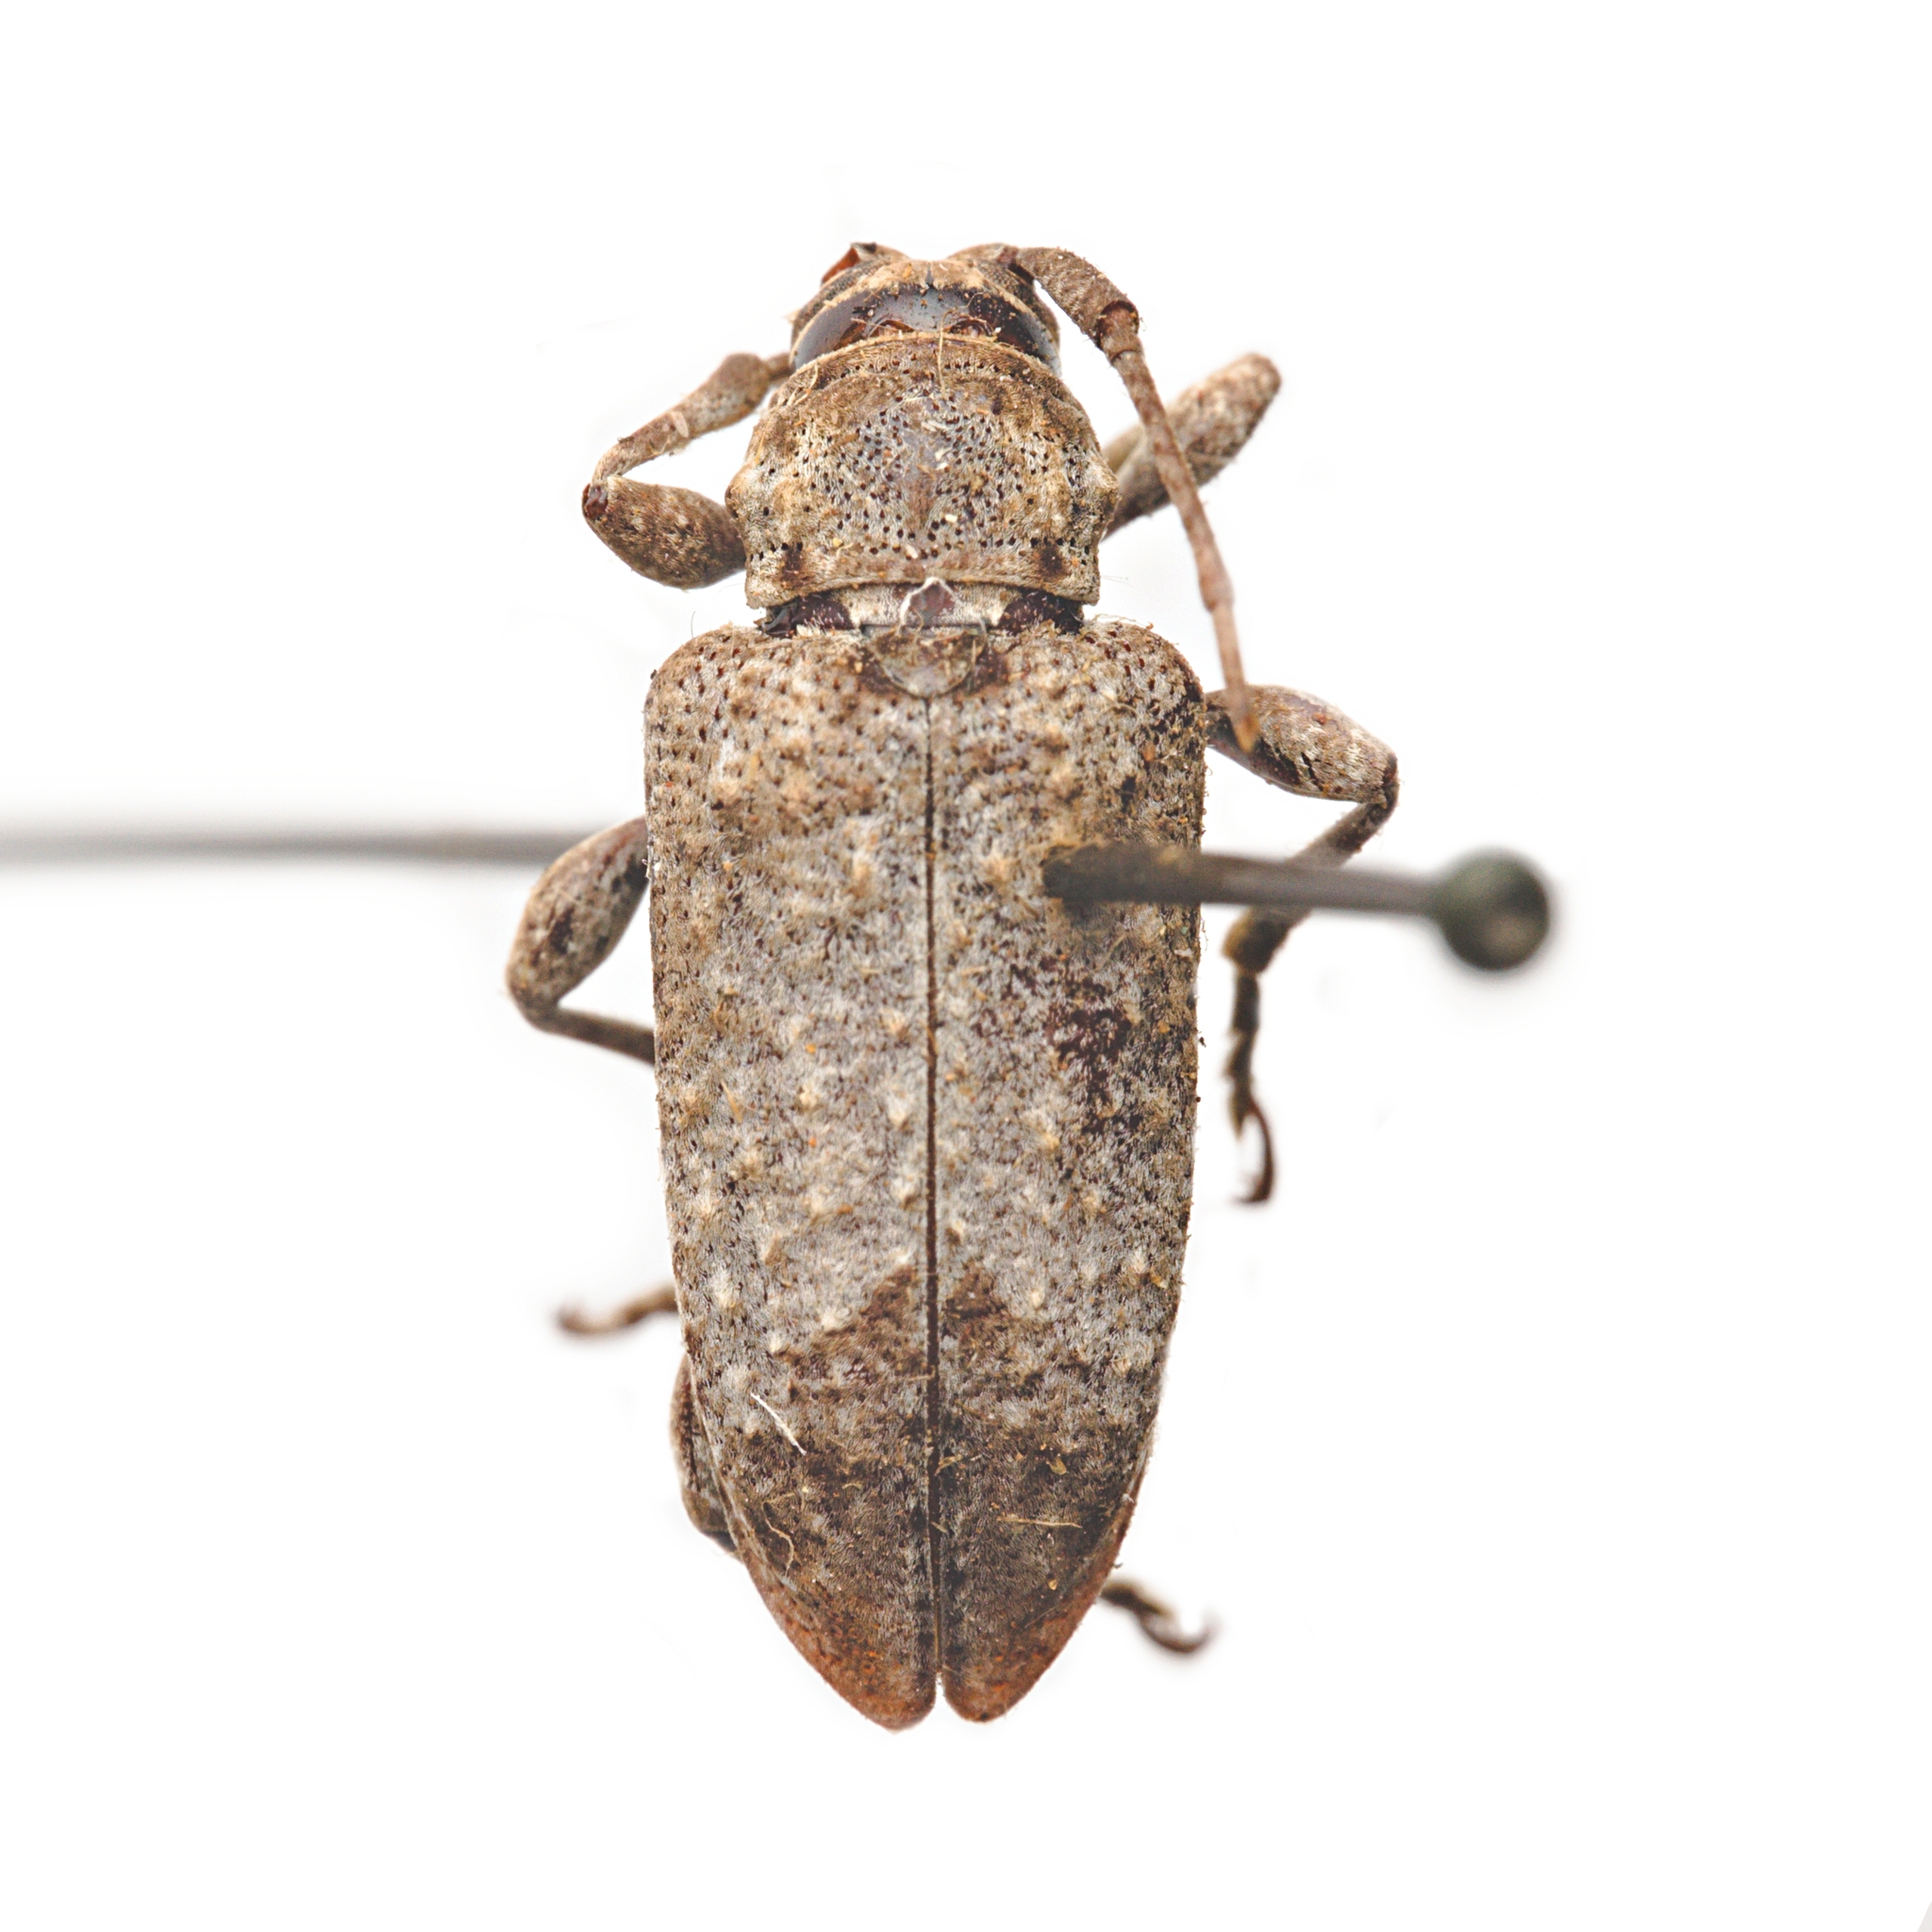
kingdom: Animalia
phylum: Arthropoda
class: Insecta
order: Coleoptera
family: Cerambycidae
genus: Astylopsis
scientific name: Astylopsis perplexa
